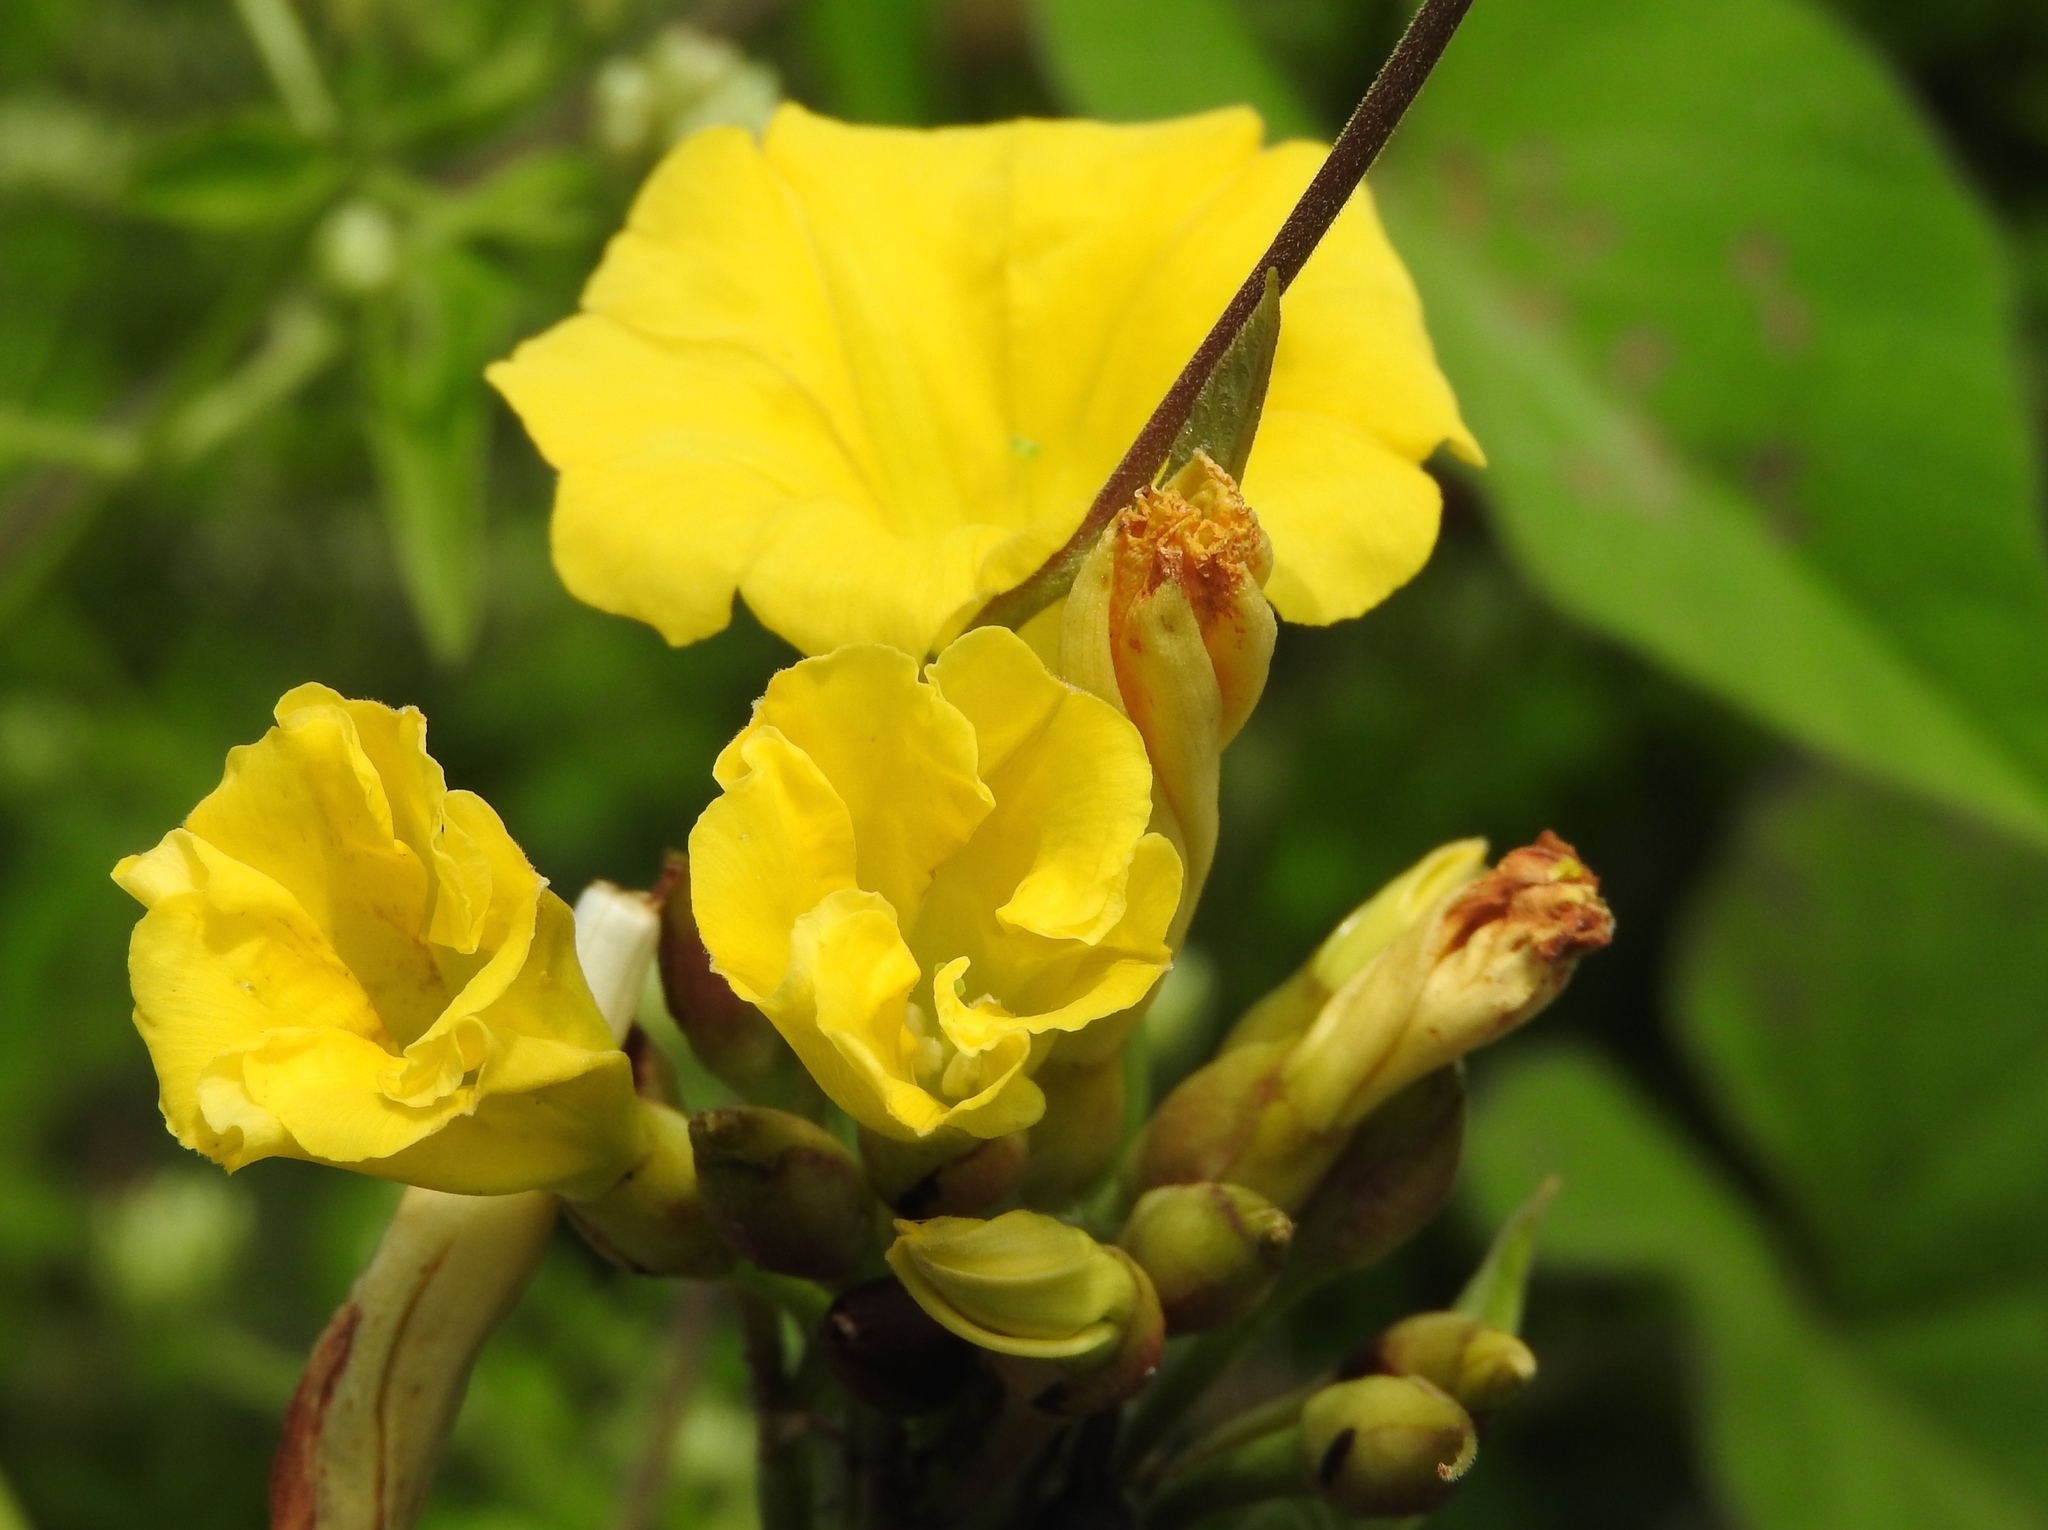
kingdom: Plantae
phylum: Tracheophyta
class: Magnoliopsida
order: Solanales
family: Convolvulaceae
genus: Camonea
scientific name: Camonea umbellata
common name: Hogvine
